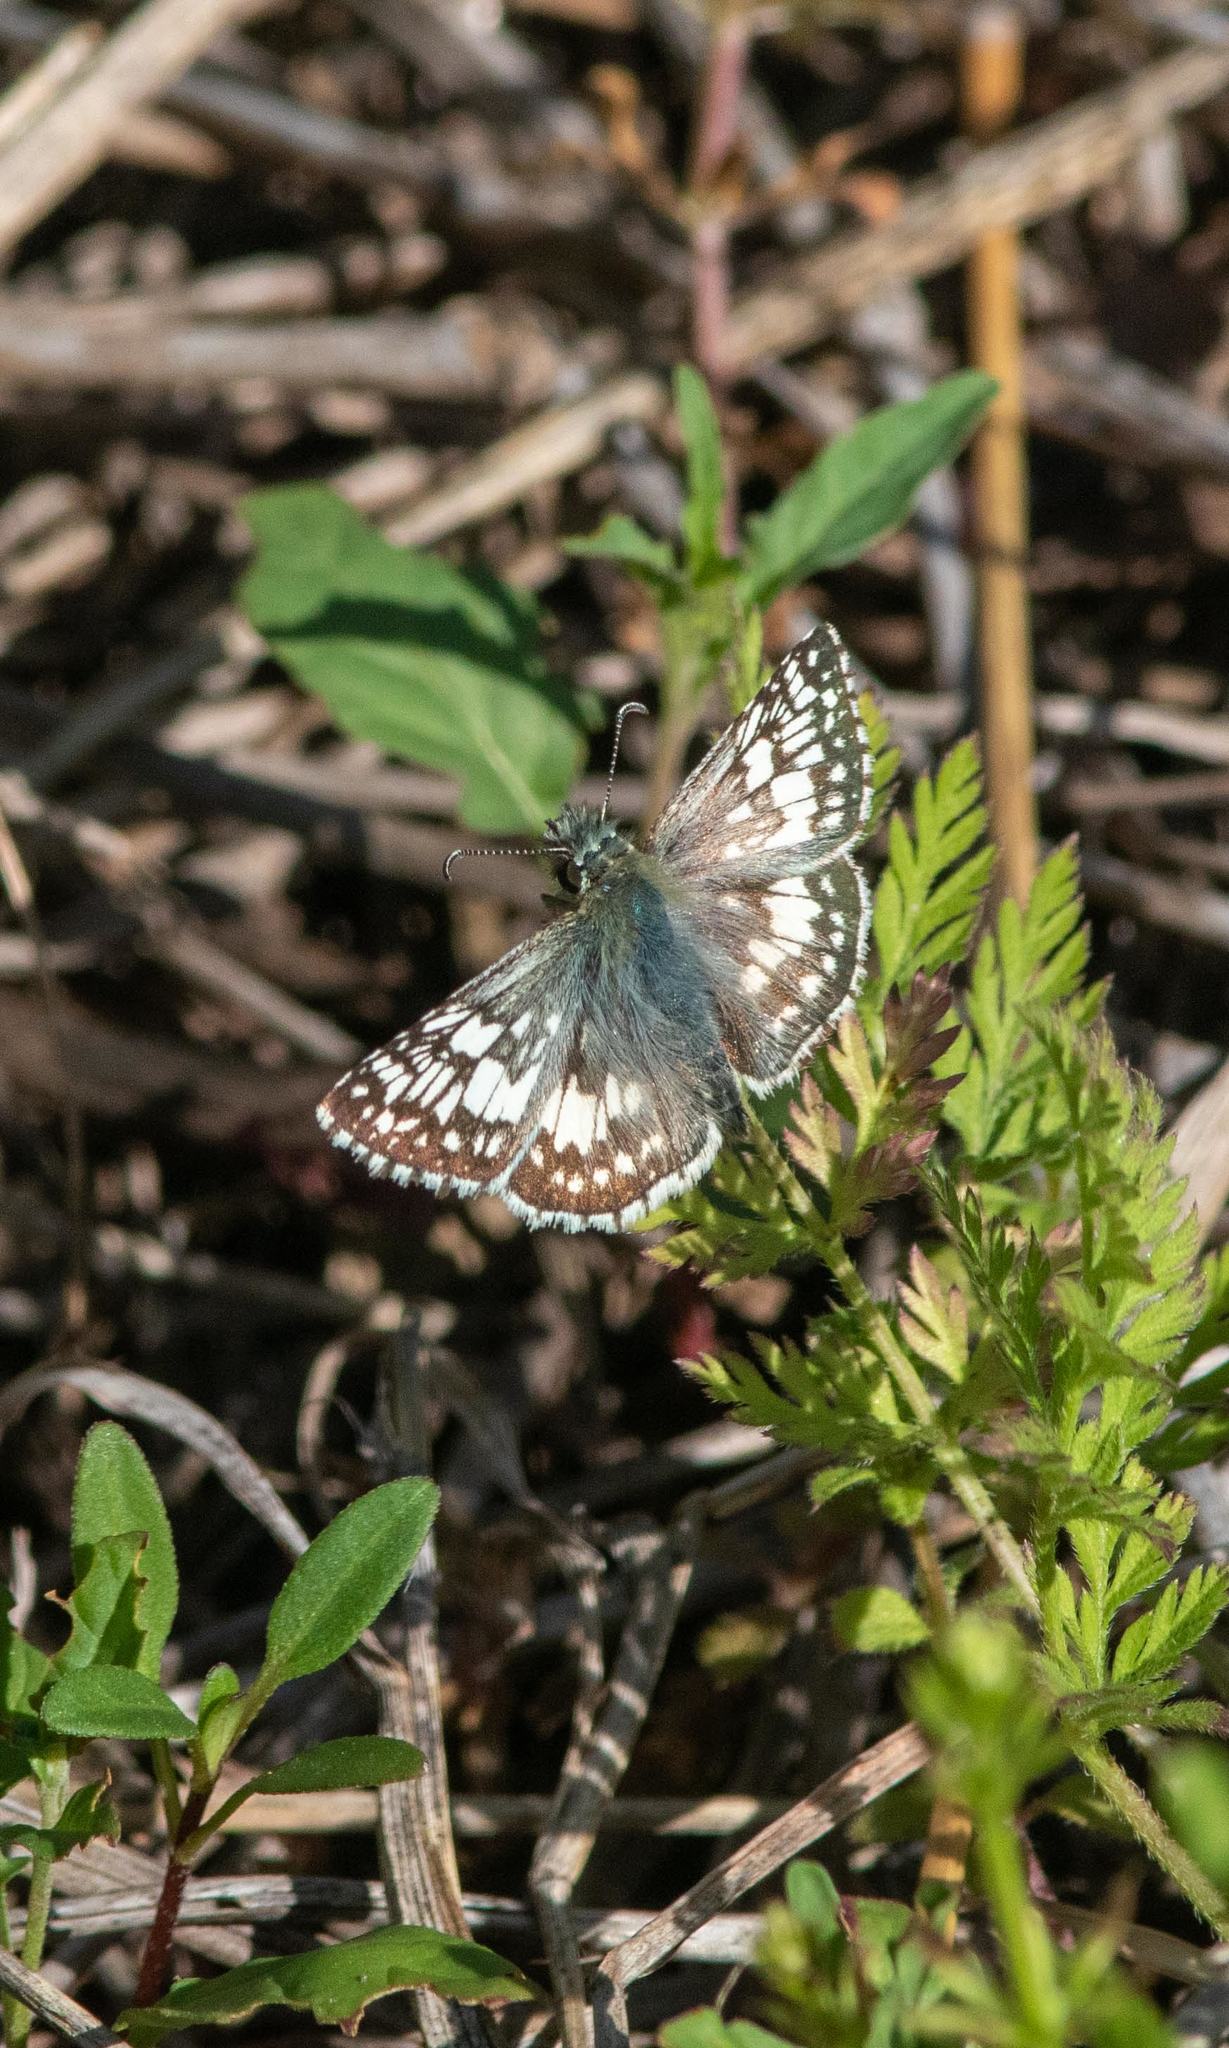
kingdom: Animalia
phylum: Arthropoda
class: Insecta
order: Lepidoptera
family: Hesperiidae
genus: Burnsius
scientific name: Burnsius
